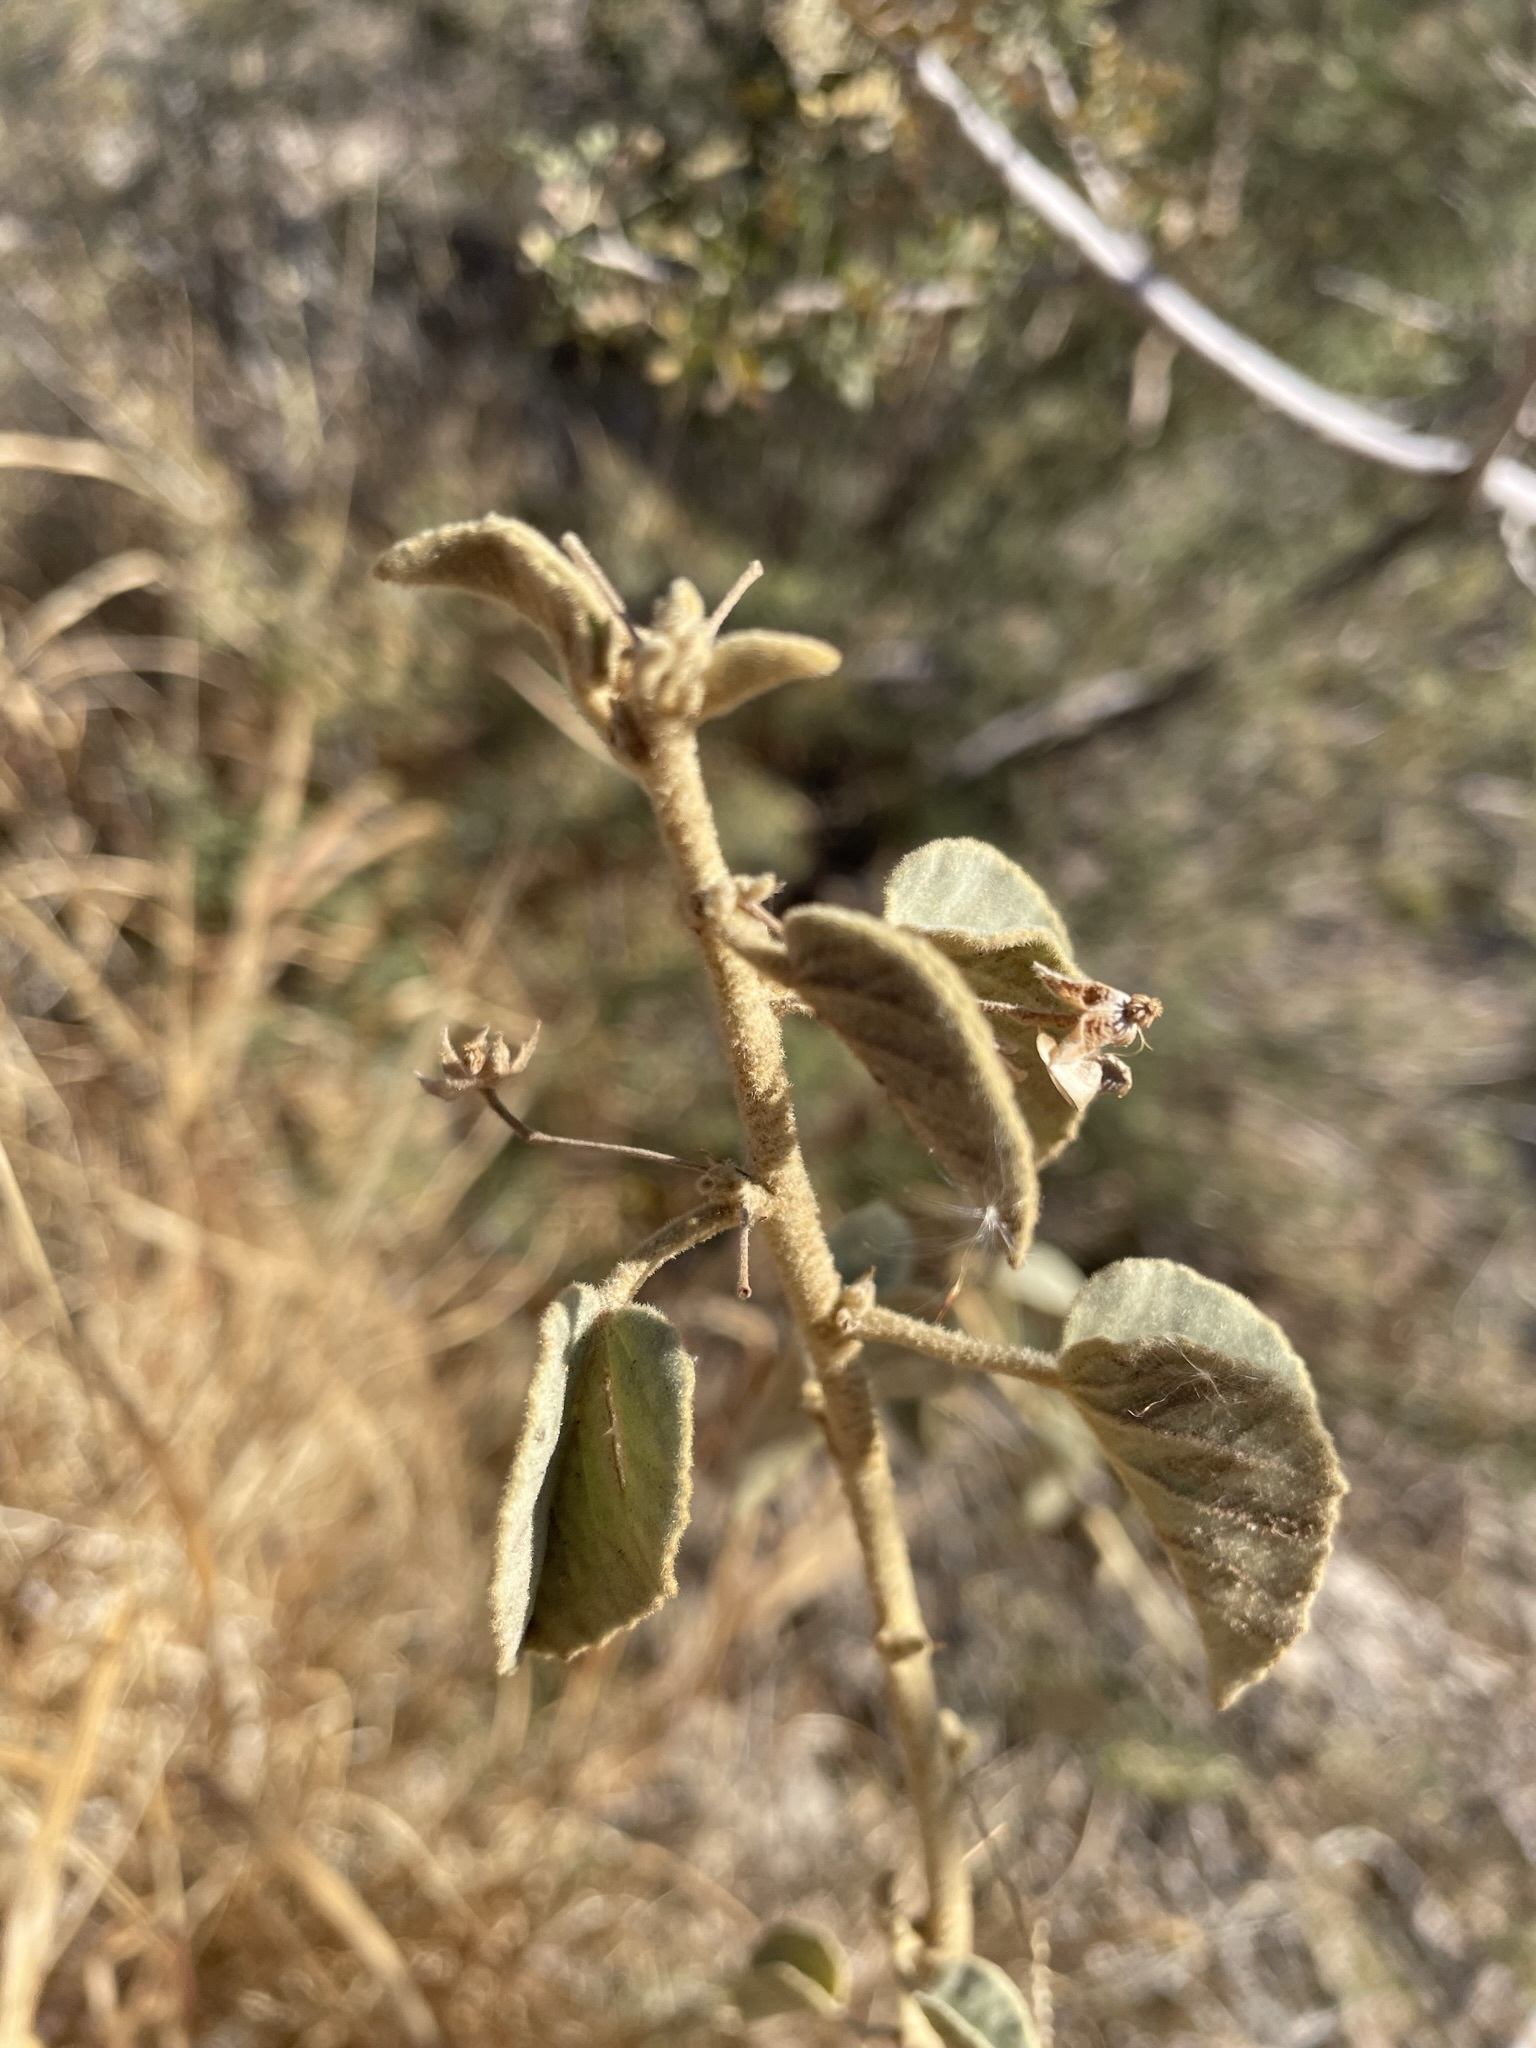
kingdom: Plantae
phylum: Tracheophyta
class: Magnoliopsida
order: Malvales
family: Malvaceae
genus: Horsfordia
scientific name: Horsfordia newberryi
